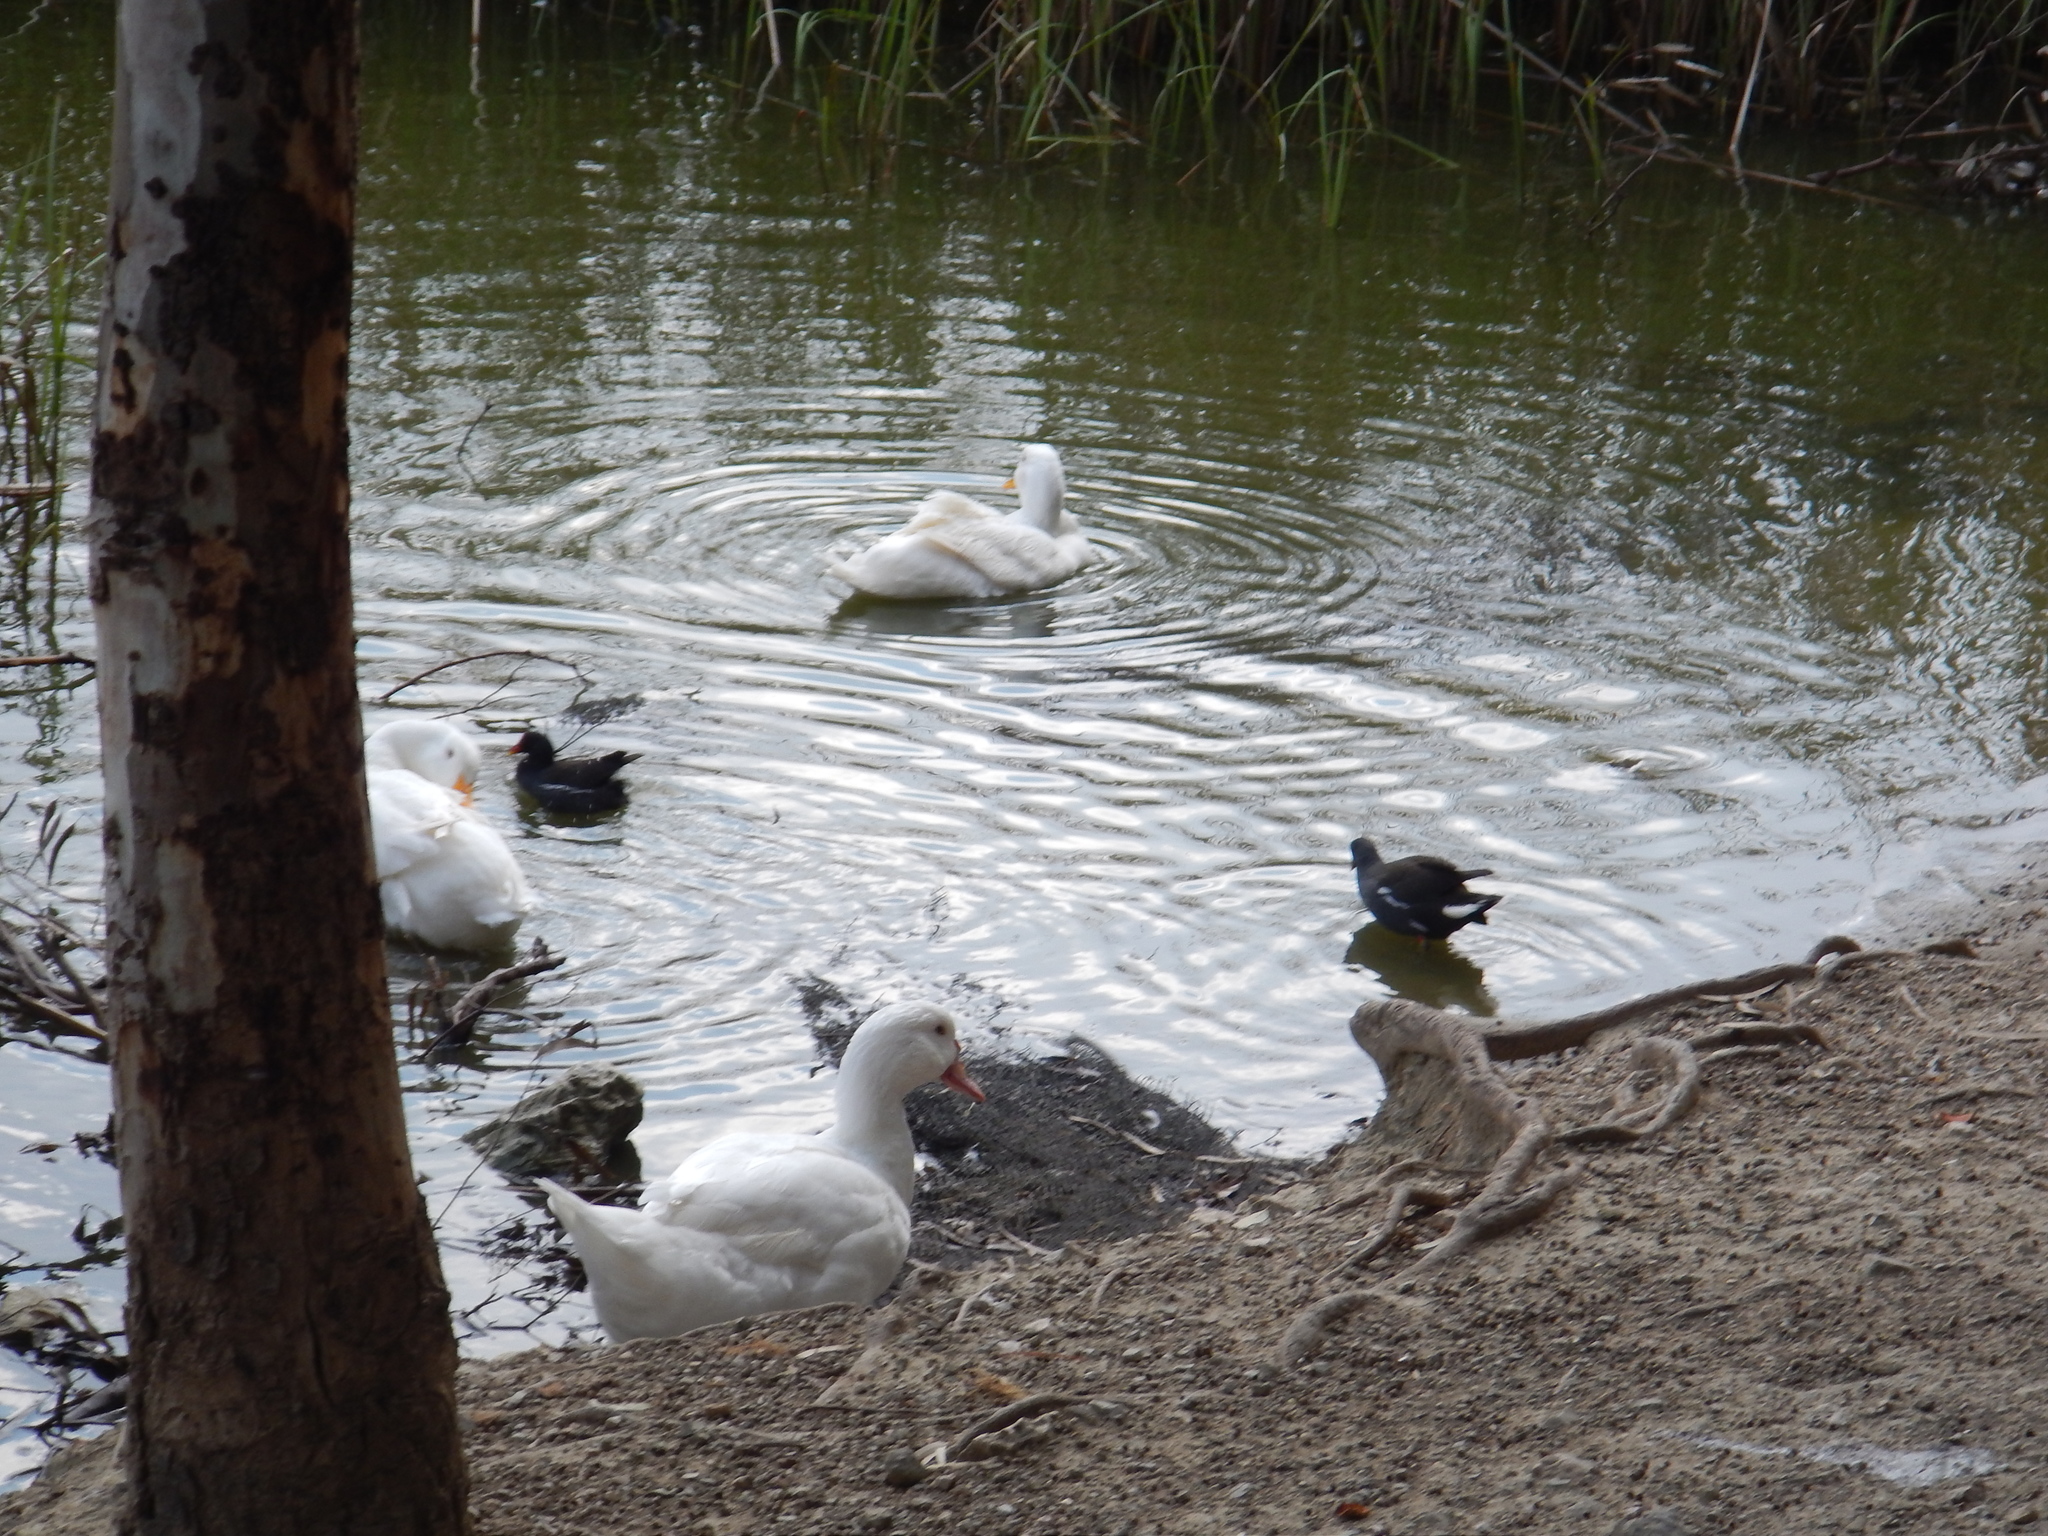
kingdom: Animalia
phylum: Chordata
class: Aves
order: Anseriformes
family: Anatidae
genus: Anser
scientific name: Anser anser
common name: Greylag goose
